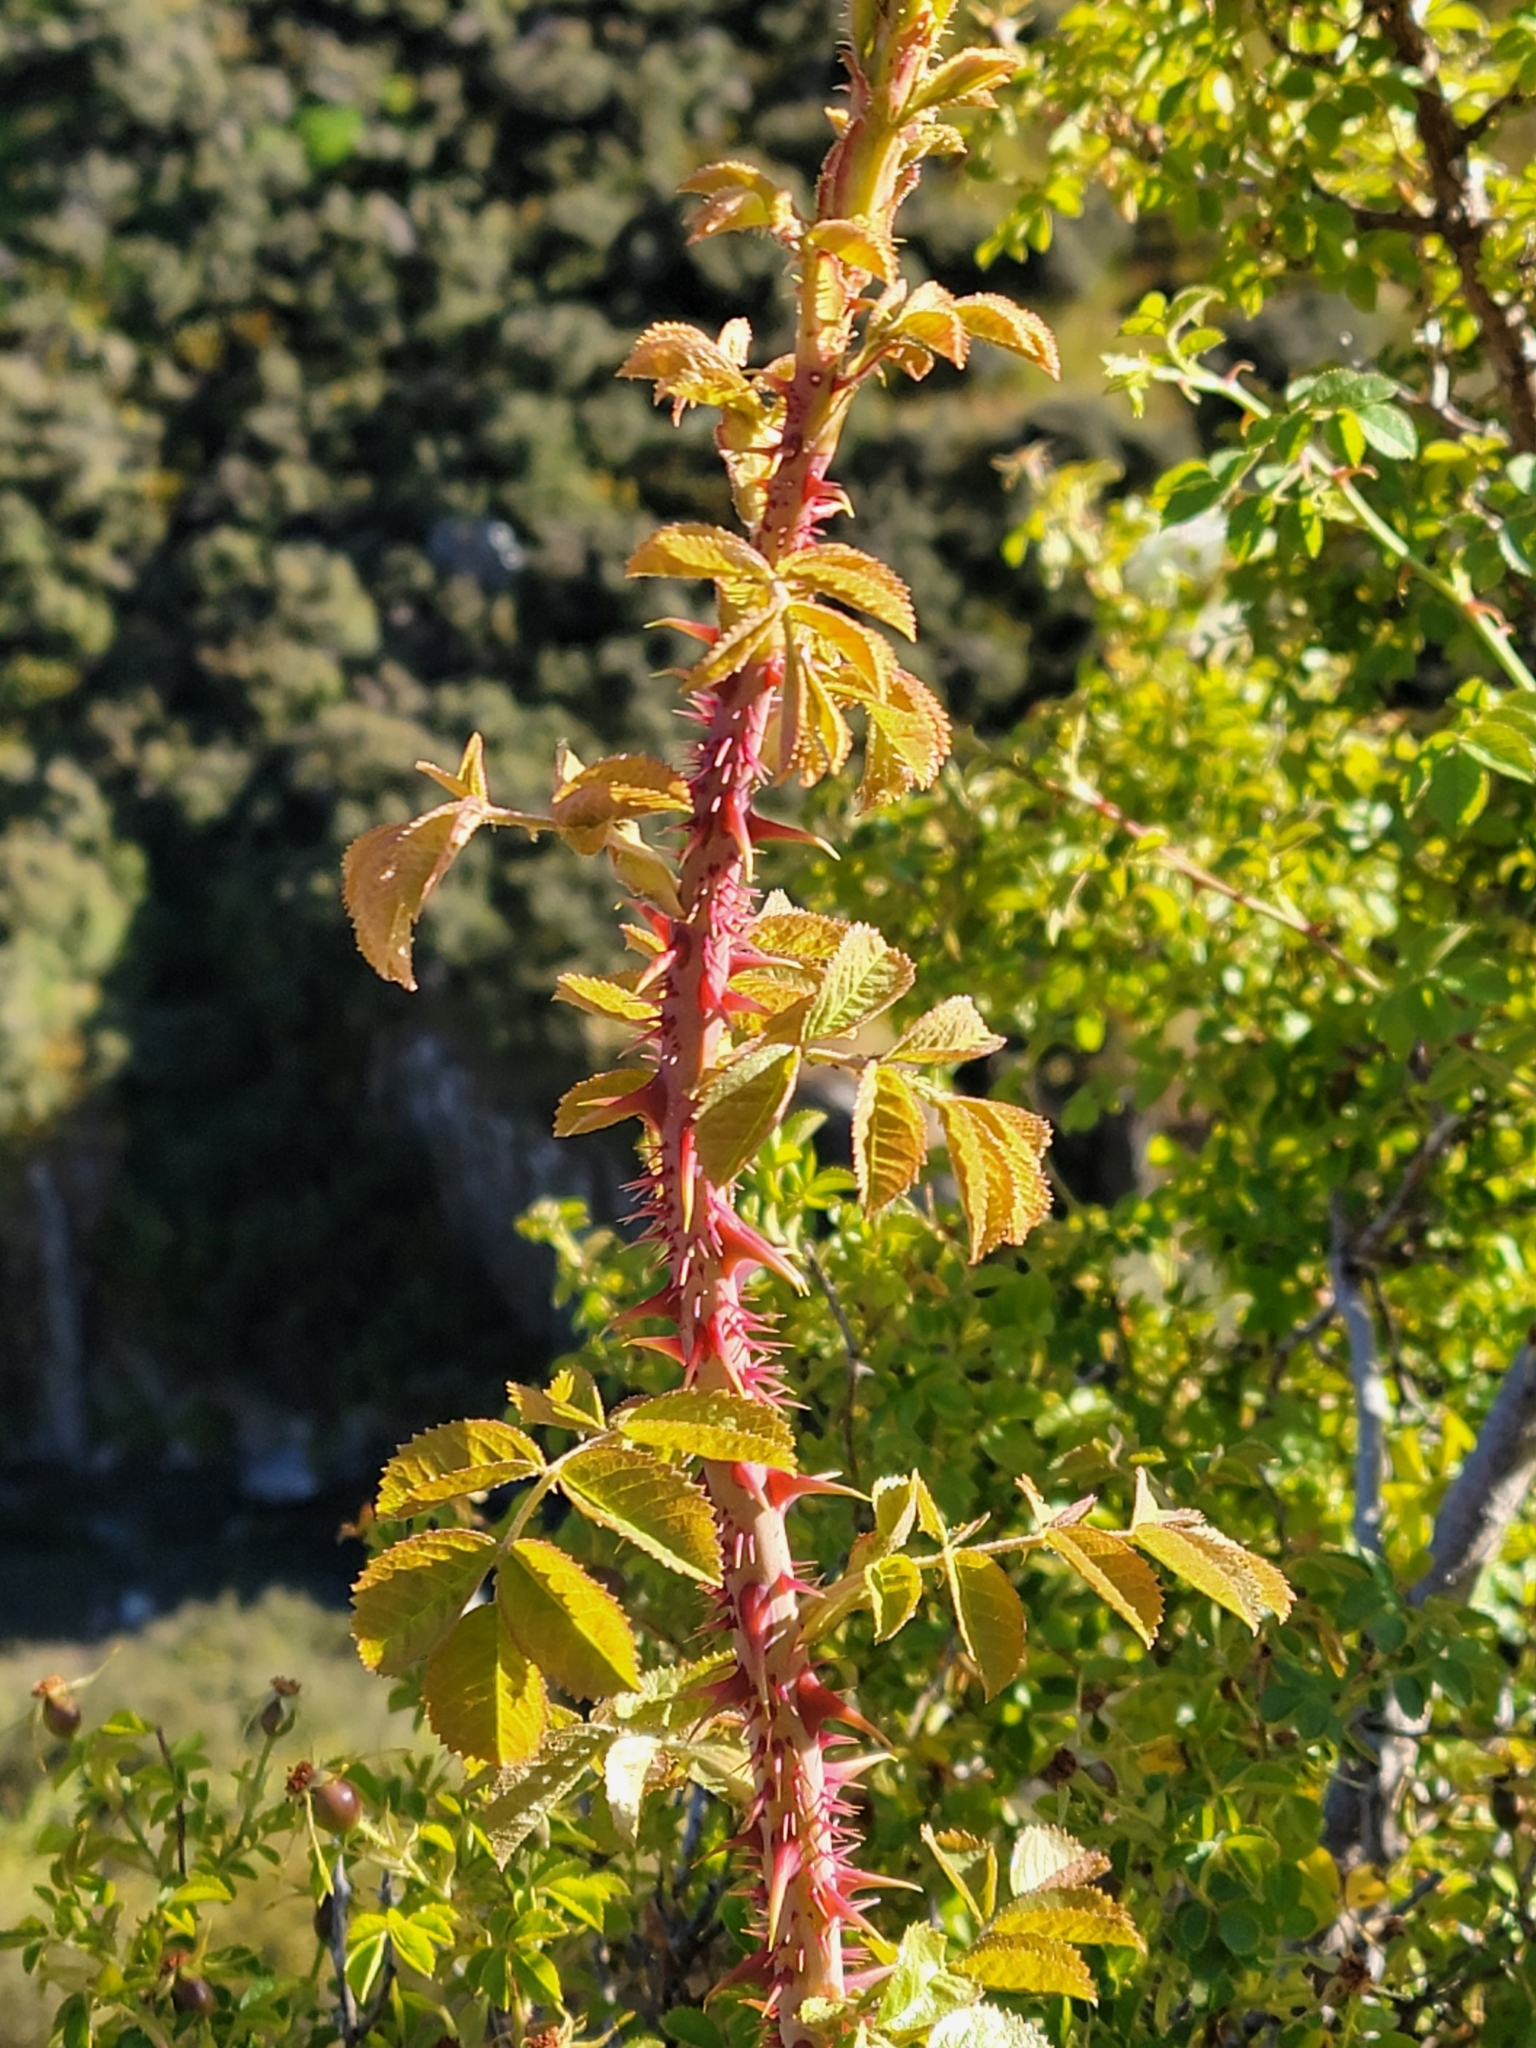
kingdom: Plantae
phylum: Tracheophyta
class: Magnoliopsida
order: Rosales
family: Rosaceae
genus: Rosa
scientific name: Rosa rubiginosa
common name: Sweet-briar
